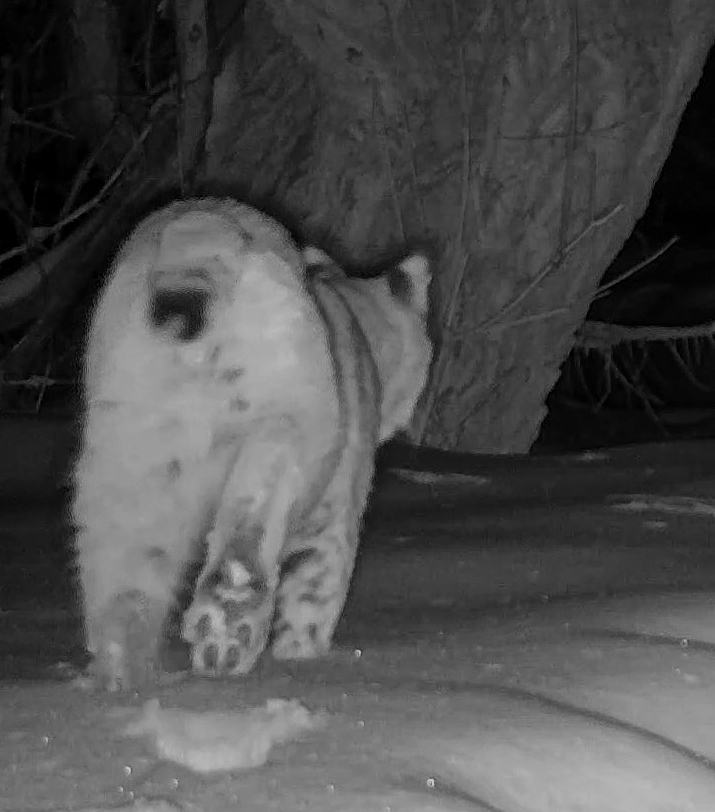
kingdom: Animalia
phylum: Chordata
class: Mammalia
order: Carnivora
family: Felidae
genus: Lynx
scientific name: Lynx rufus
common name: Bobcat
